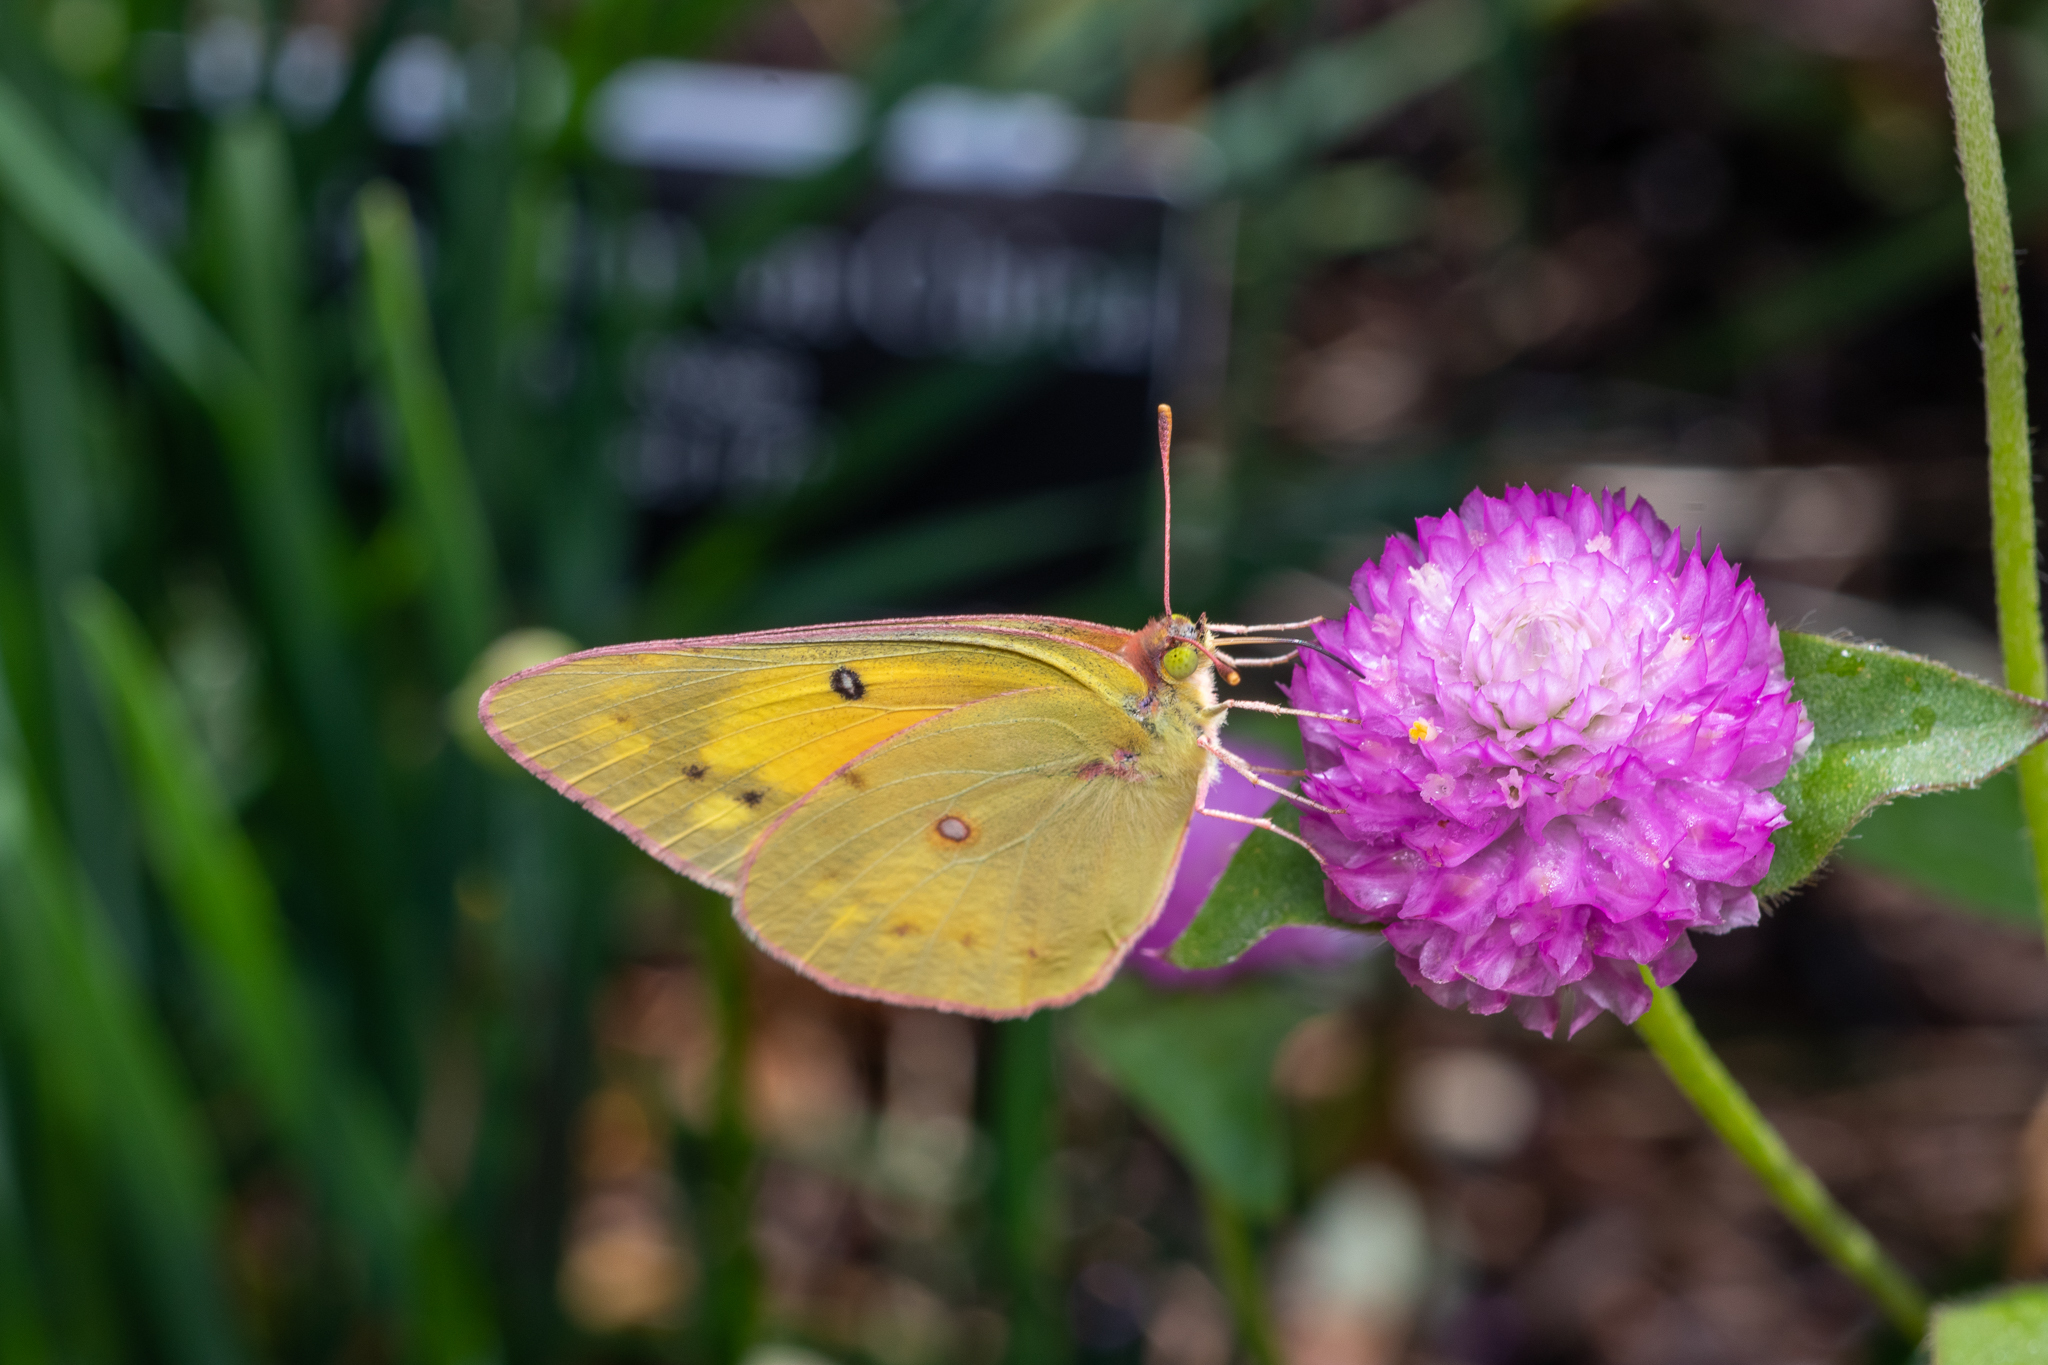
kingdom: Animalia
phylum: Arthropoda
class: Insecta
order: Lepidoptera
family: Pieridae
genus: Colias
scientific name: Colias eurytheme
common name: Alfalfa butterfly
